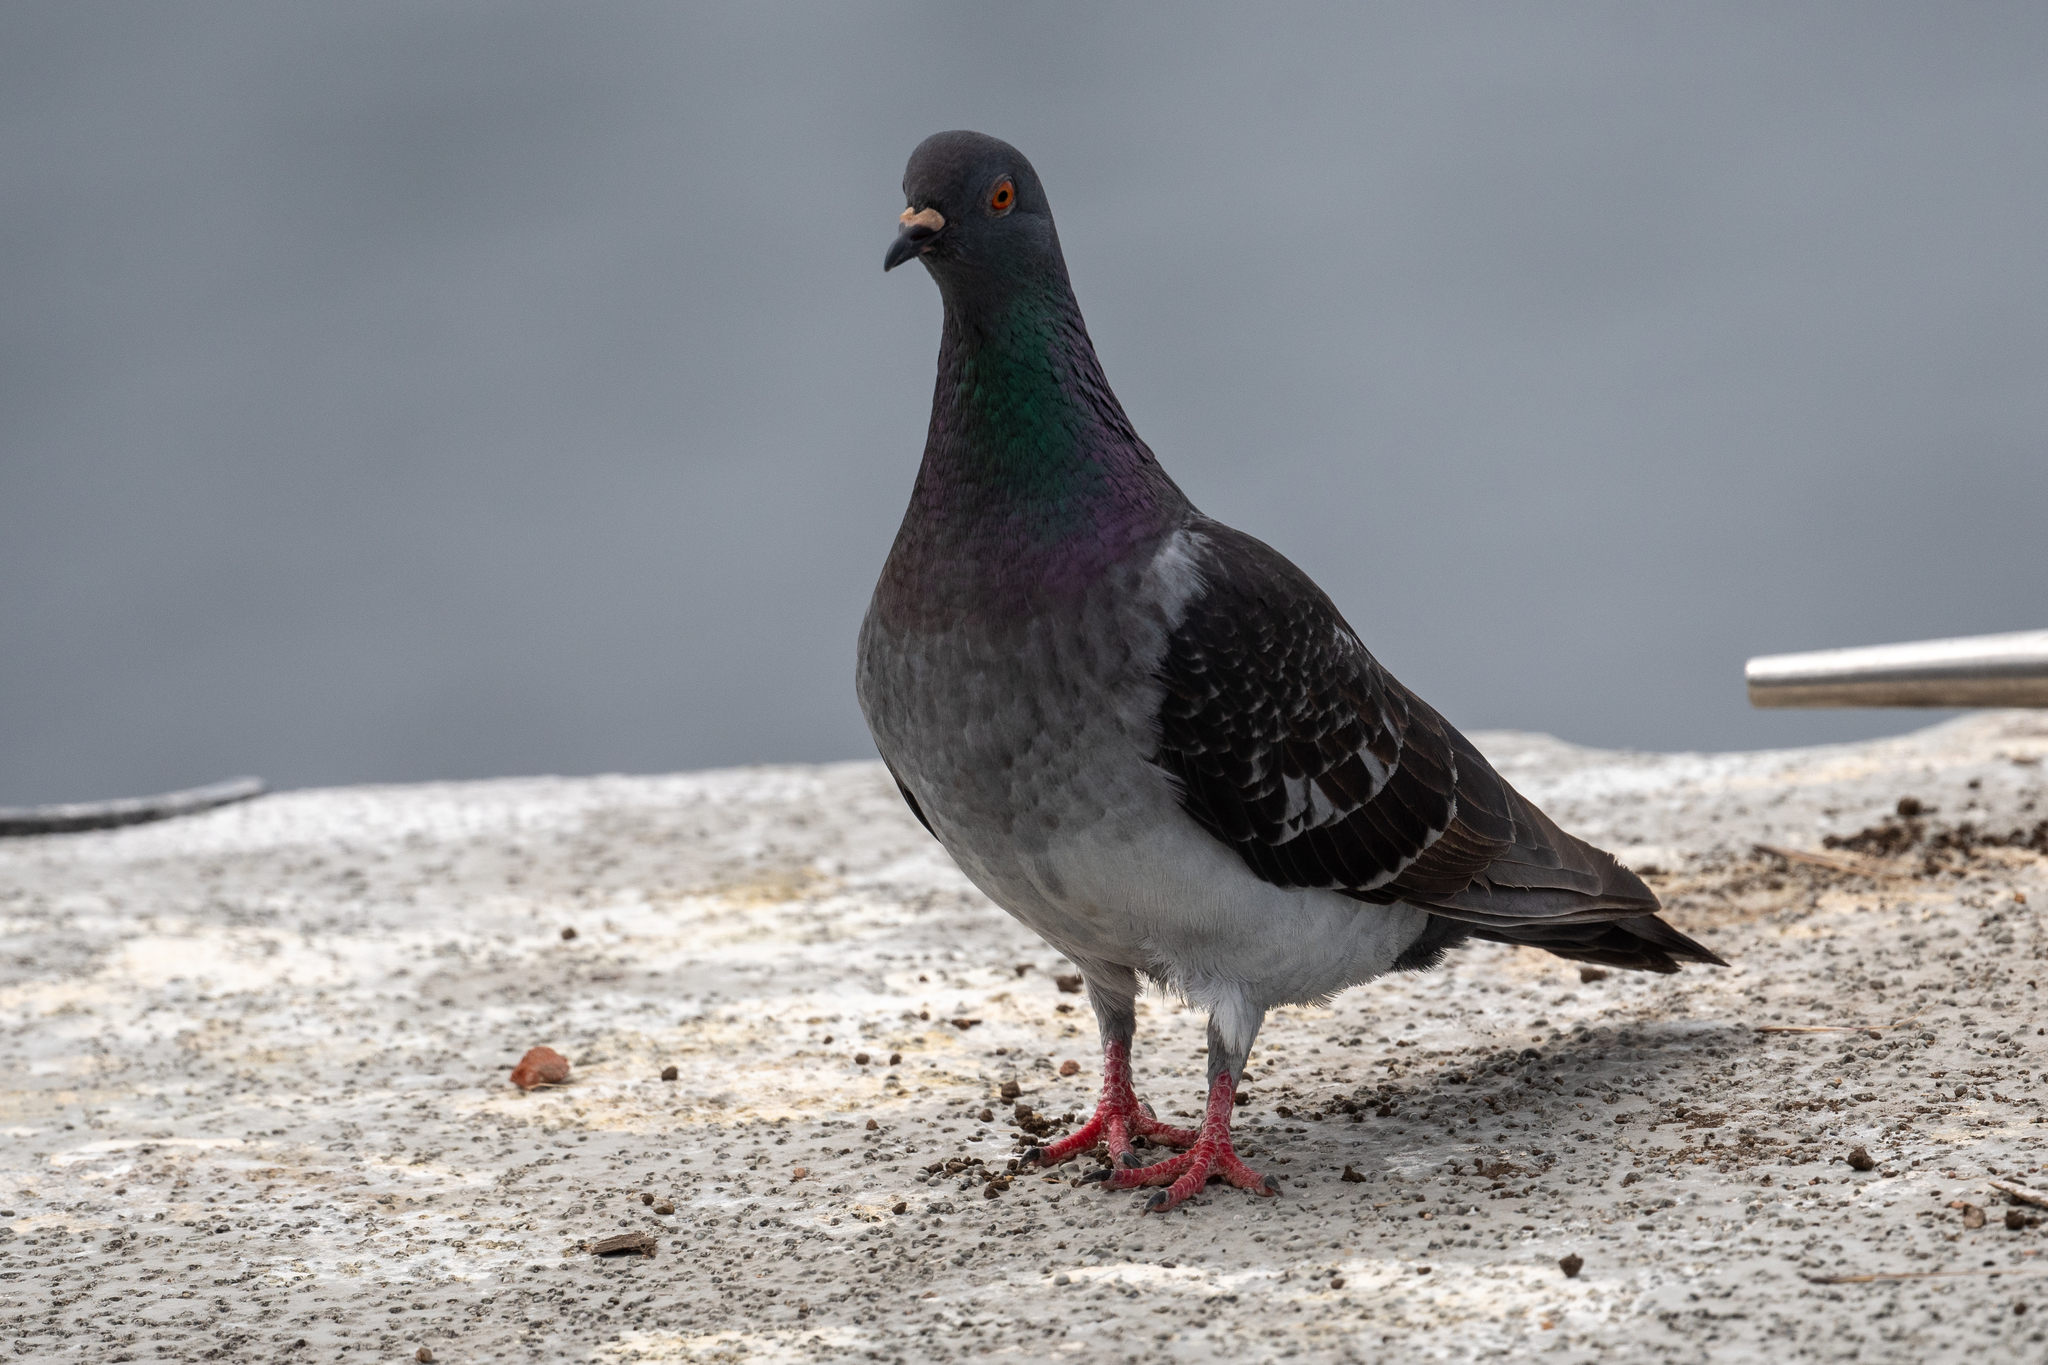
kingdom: Animalia
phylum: Chordata
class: Aves
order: Columbiformes
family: Columbidae
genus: Columba
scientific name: Columba livia
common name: Rock pigeon
